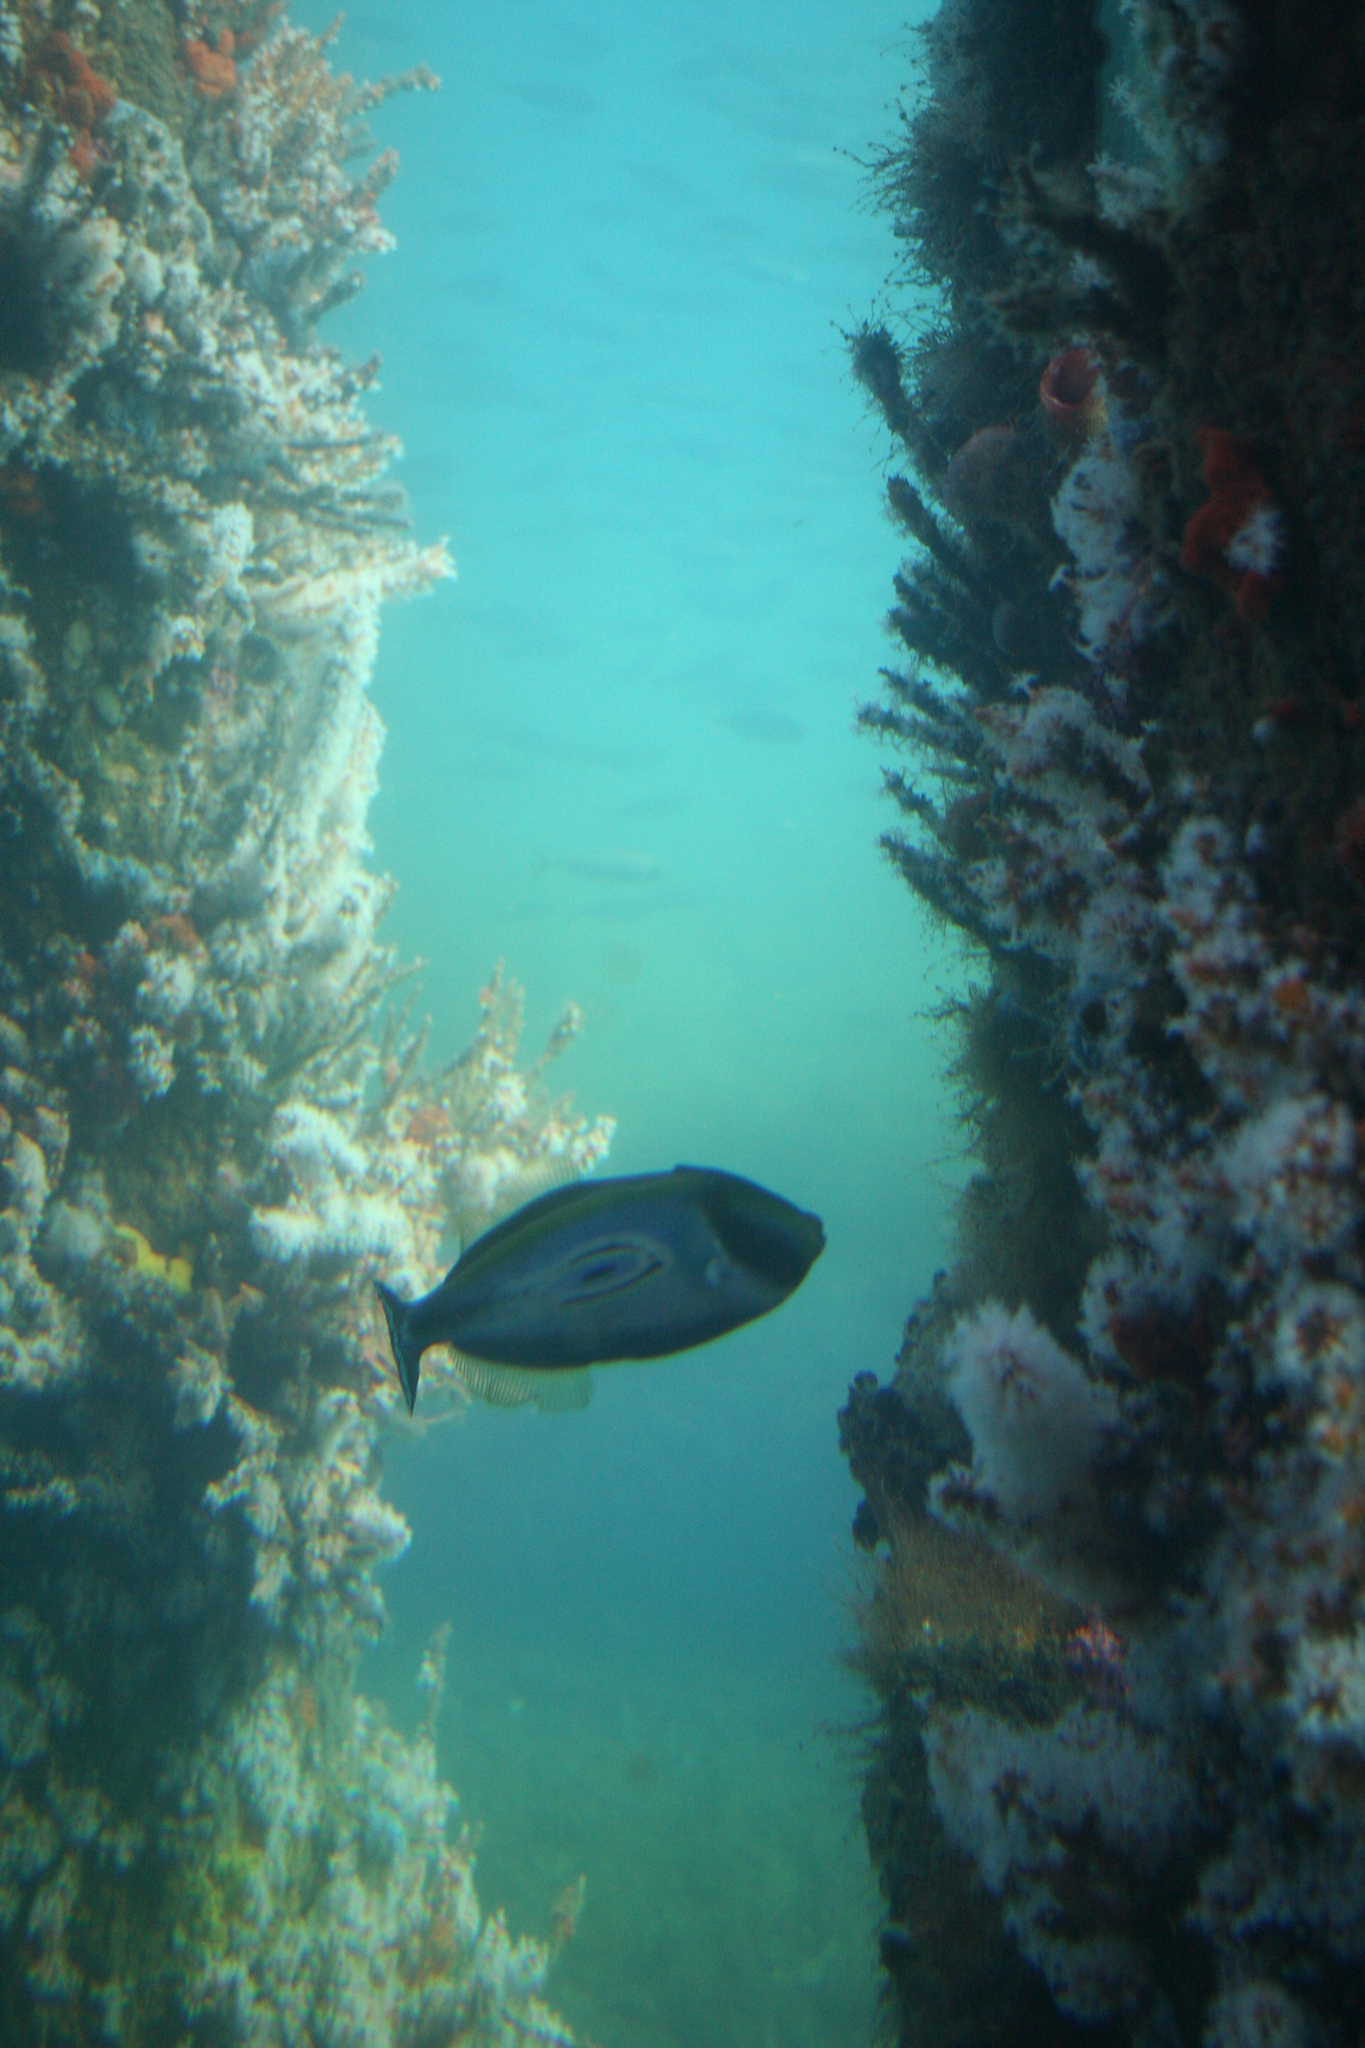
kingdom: Animalia
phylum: Chordata
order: Tetraodontiformes
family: Monacanthidae
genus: Meuschenia
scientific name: Meuschenia hippocrepis
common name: Horse-shoe leatherjacket
